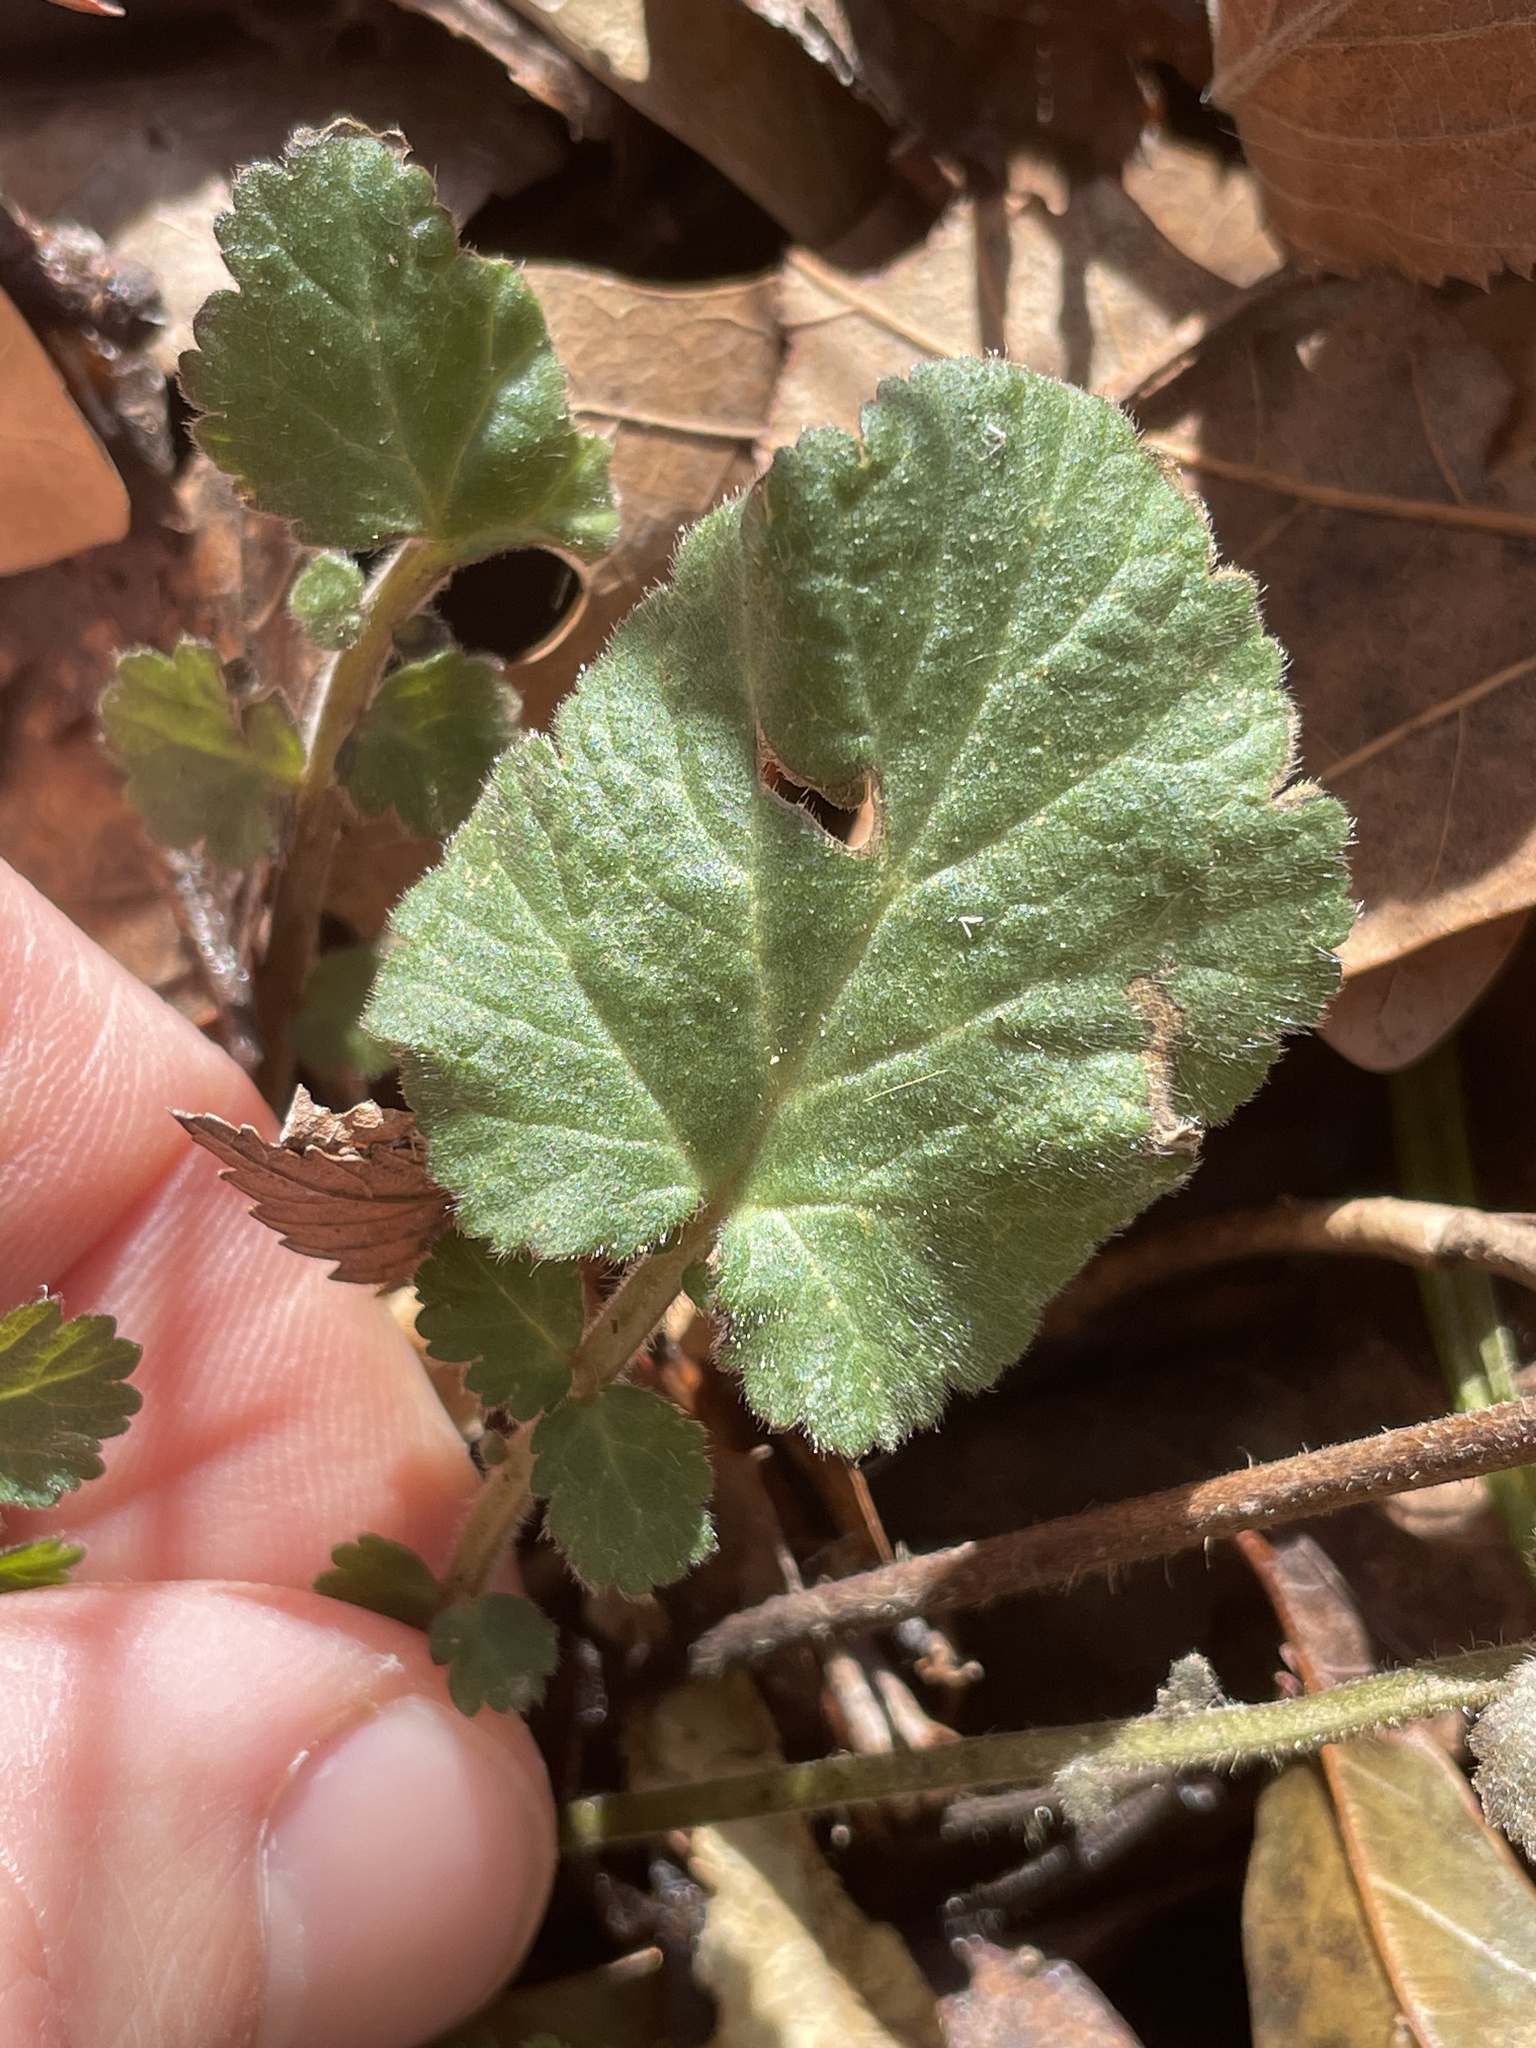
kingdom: Plantae
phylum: Tracheophyta
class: Magnoliopsida
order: Rosales
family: Rosaceae
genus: Geum
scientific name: Geum canadense
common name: White avens
